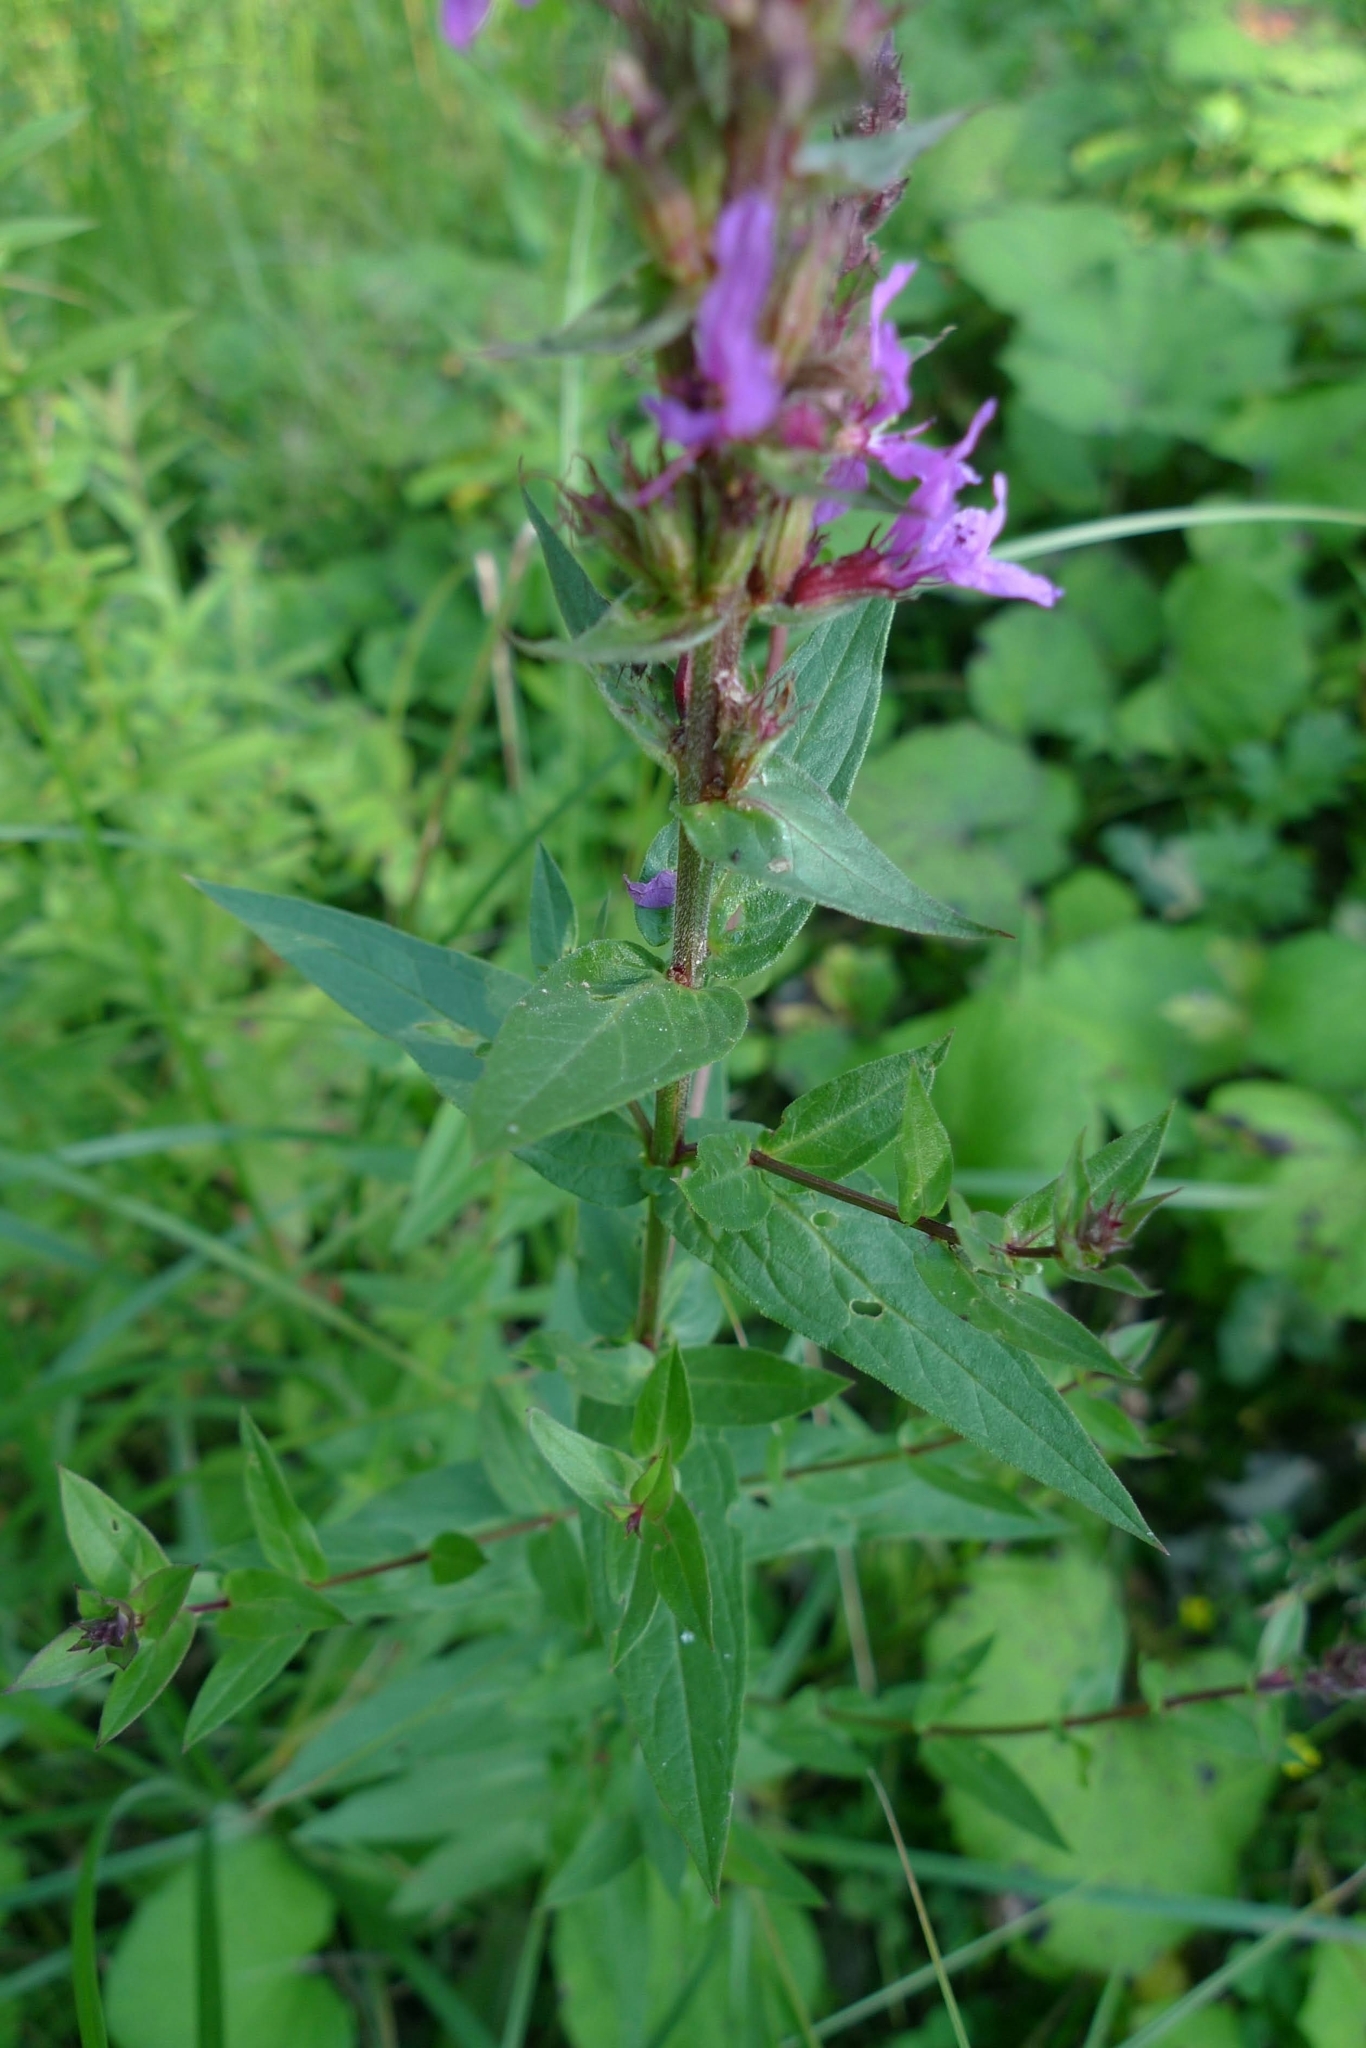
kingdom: Plantae
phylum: Tracheophyta
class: Magnoliopsida
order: Myrtales
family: Lythraceae
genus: Lythrum
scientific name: Lythrum salicaria
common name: Purple loosestrife
